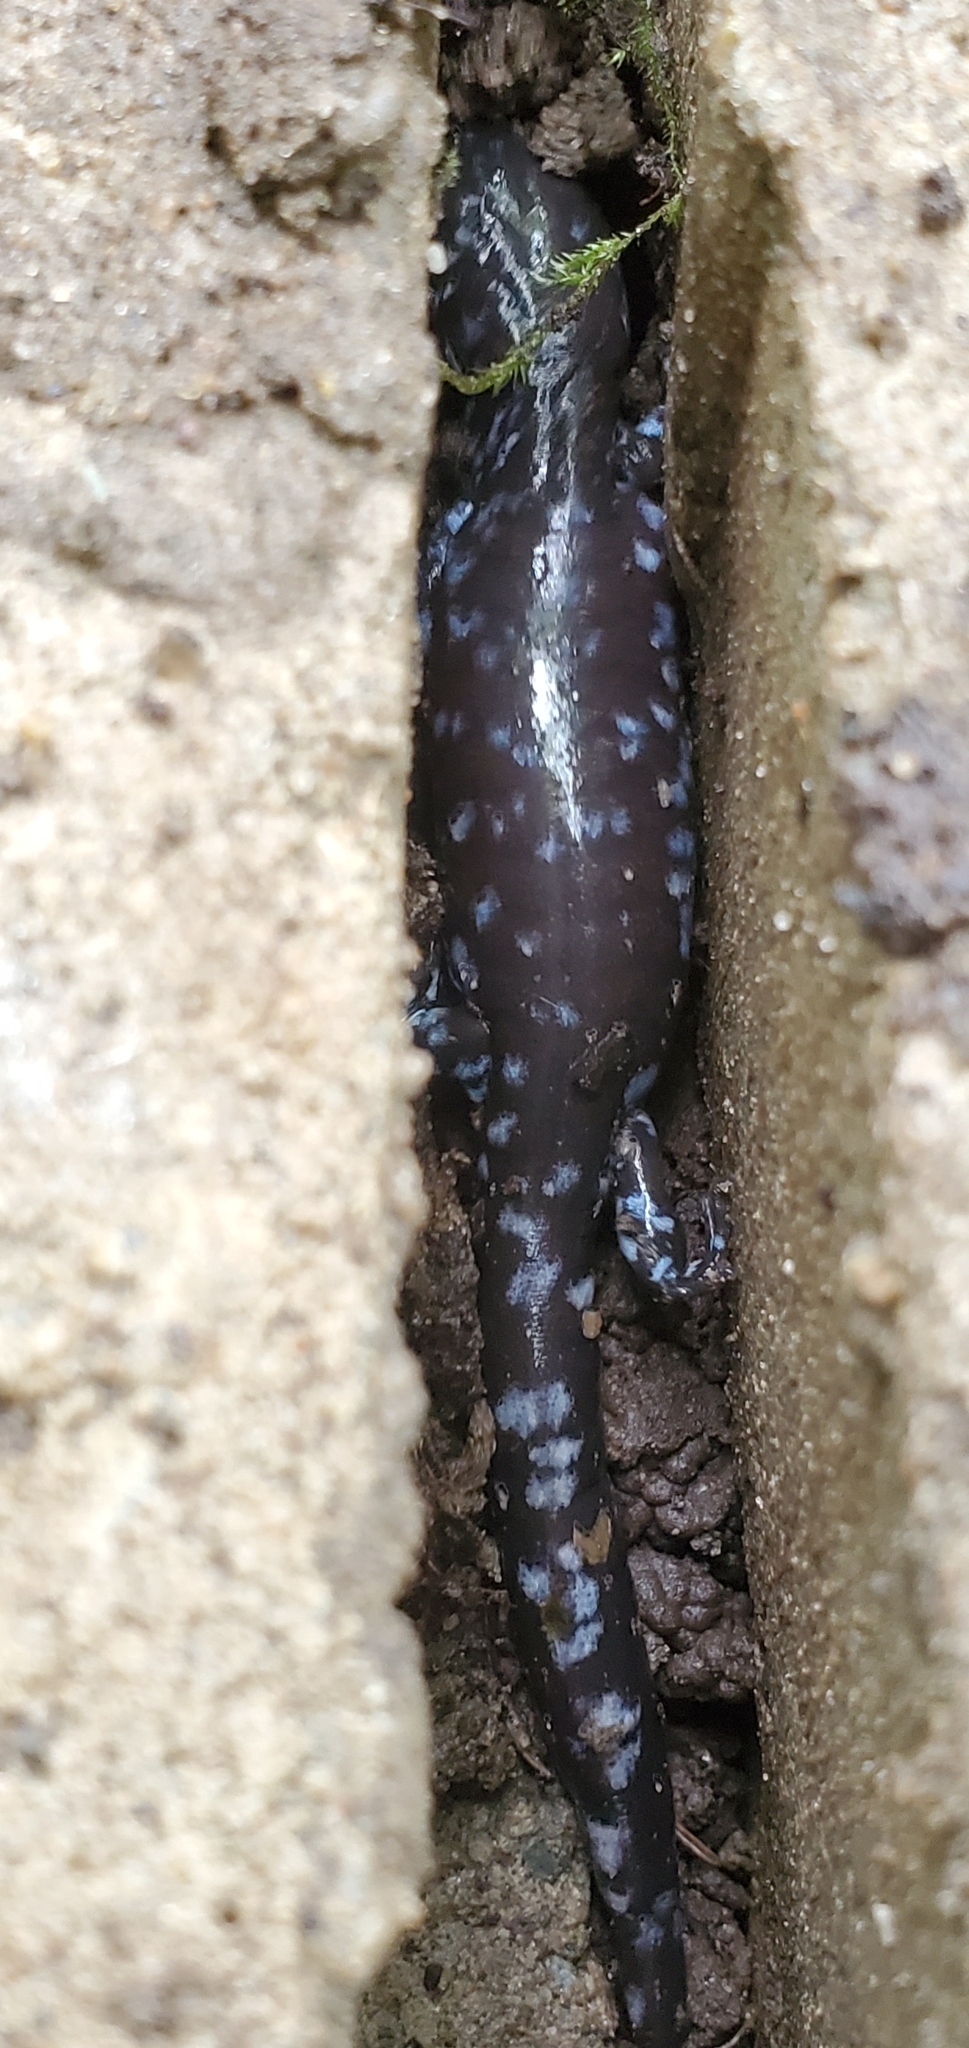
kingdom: Animalia
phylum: Chordata
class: Amphibia
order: Caudata
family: Ambystomatidae
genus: Ambystoma
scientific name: Ambystoma laterale
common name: Blue-spotted salamander
